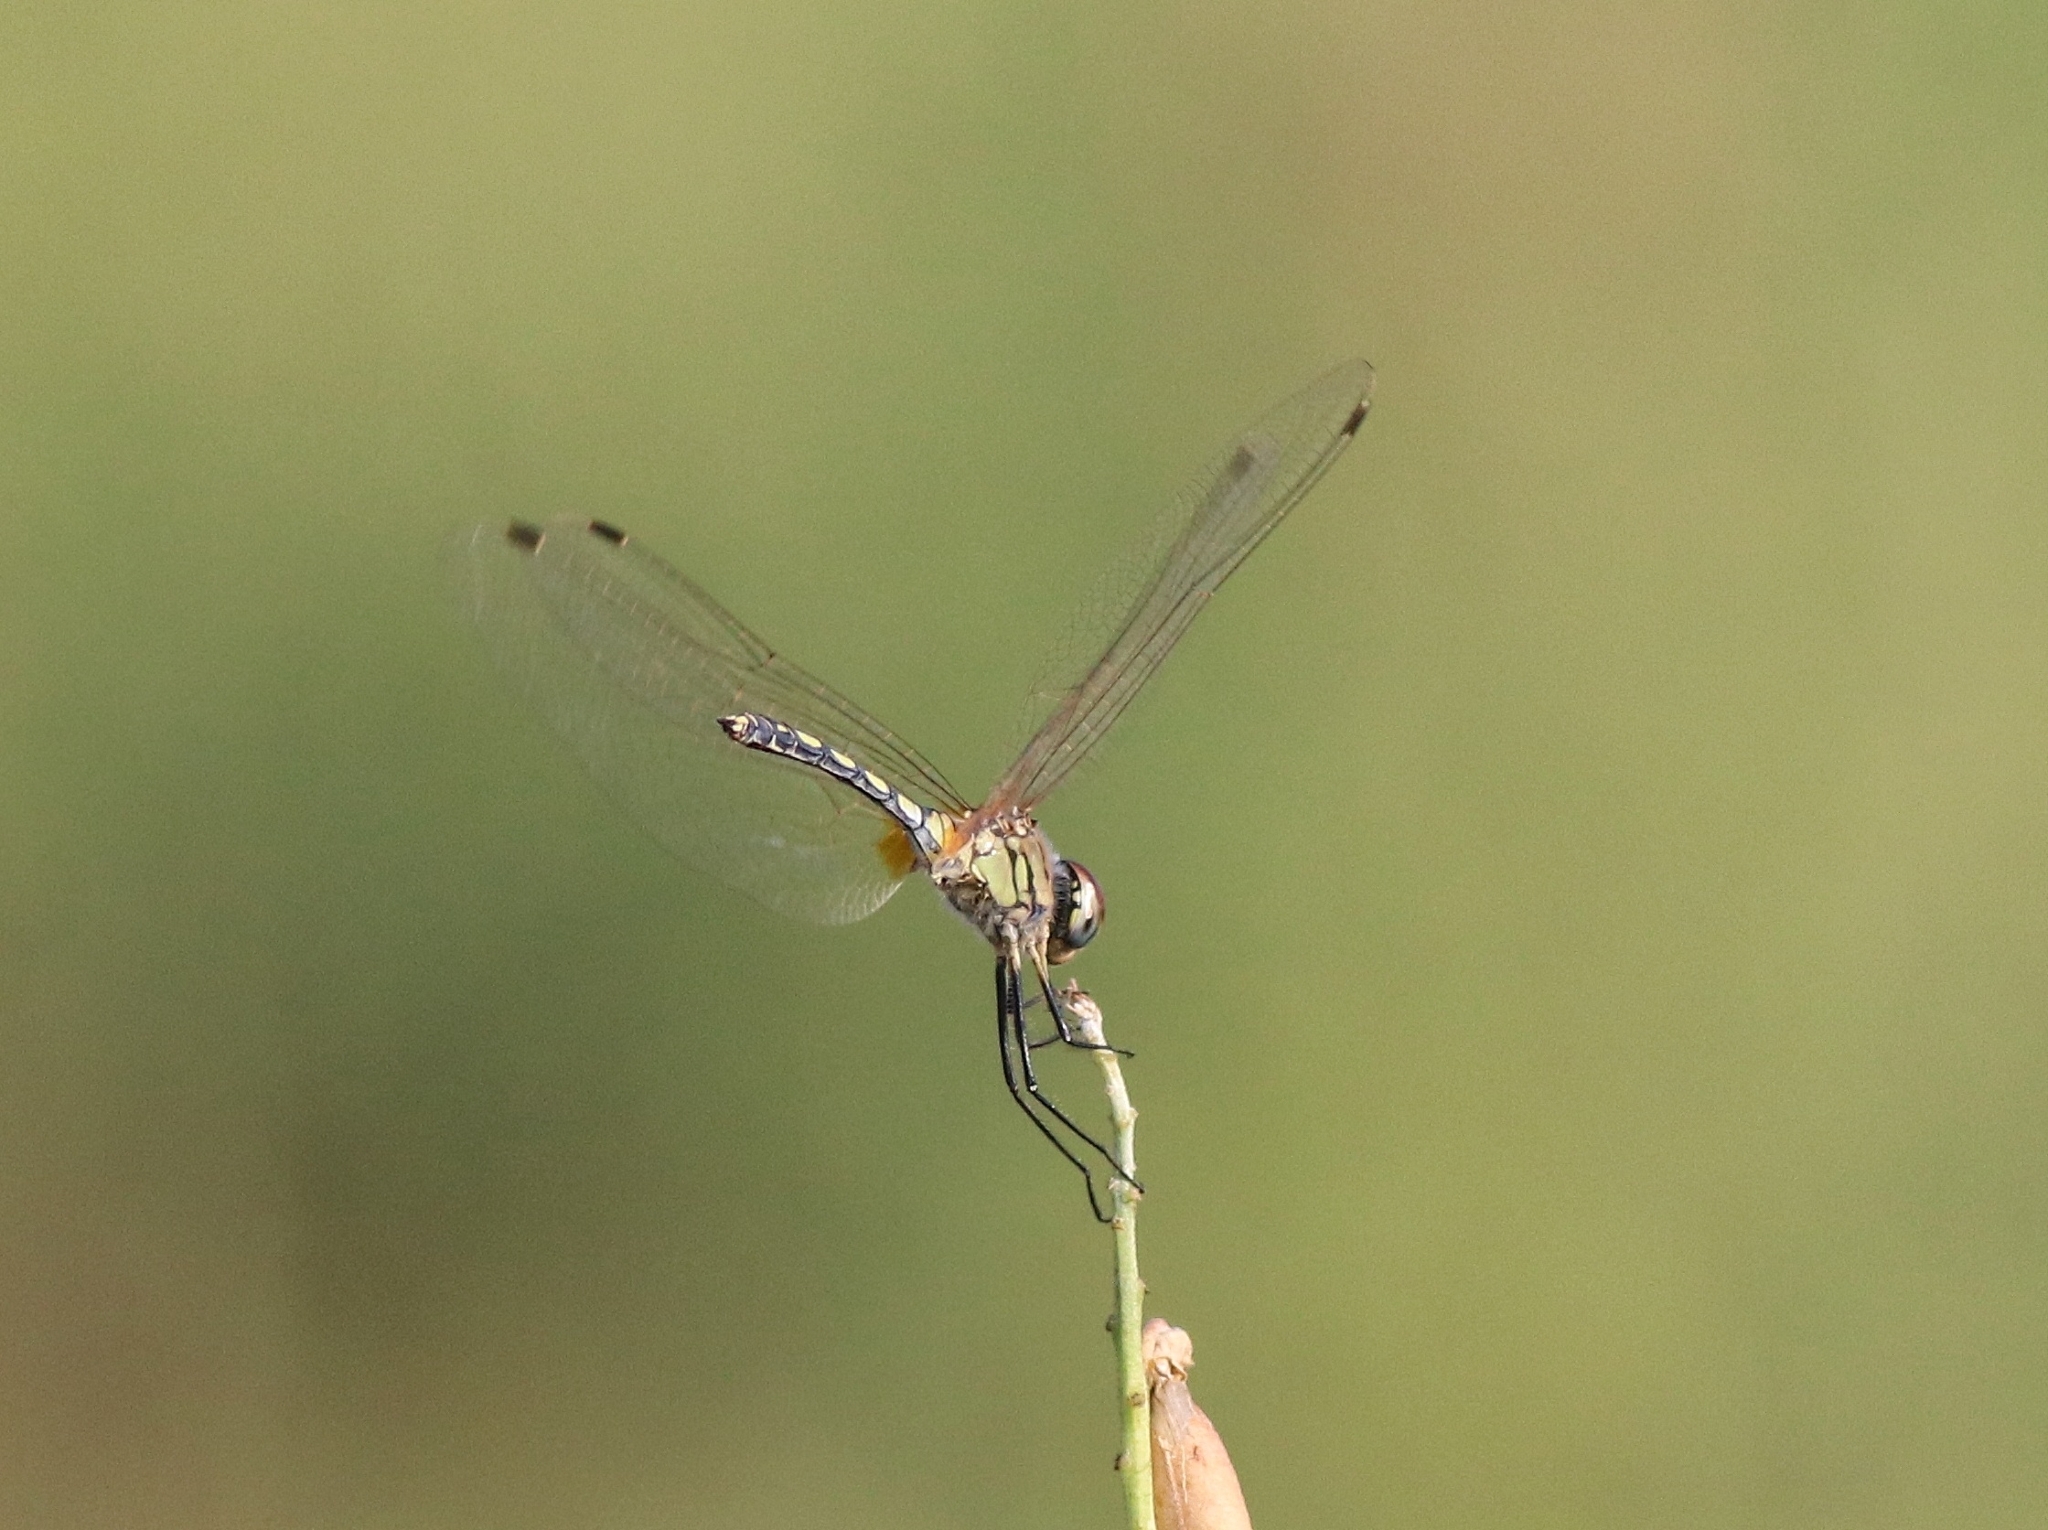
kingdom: Animalia
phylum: Arthropoda
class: Insecta
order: Odonata
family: Libellulidae
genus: Trithemis
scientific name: Trithemis pallidinervis
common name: Dancing dropwing
